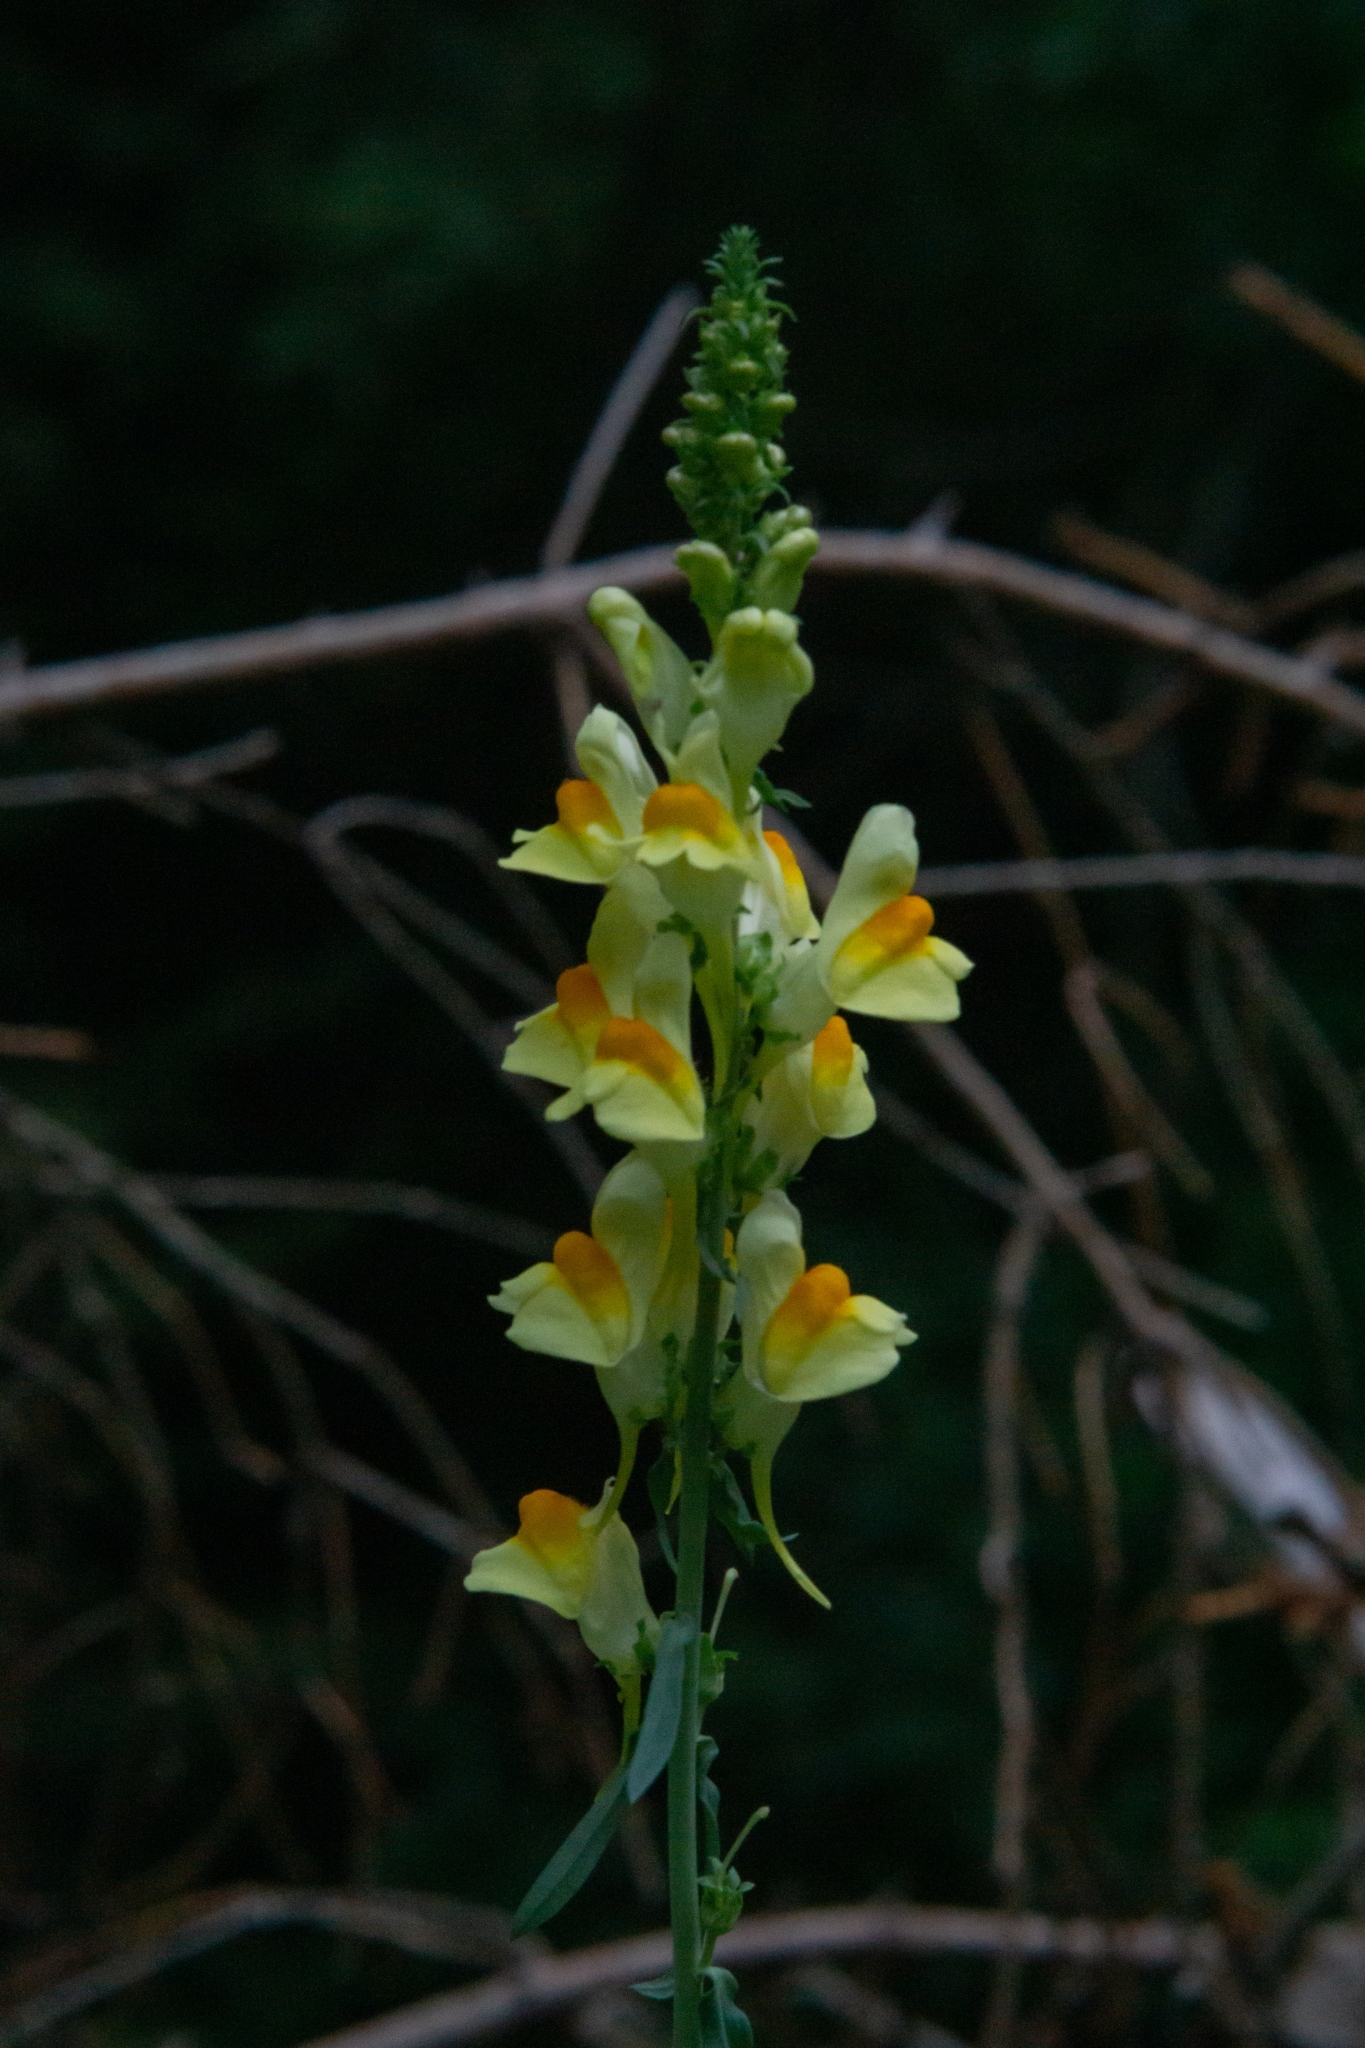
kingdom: Plantae
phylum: Tracheophyta
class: Magnoliopsida
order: Lamiales
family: Plantaginaceae
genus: Linaria
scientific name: Linaria vulgaris
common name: Butter and eggs
